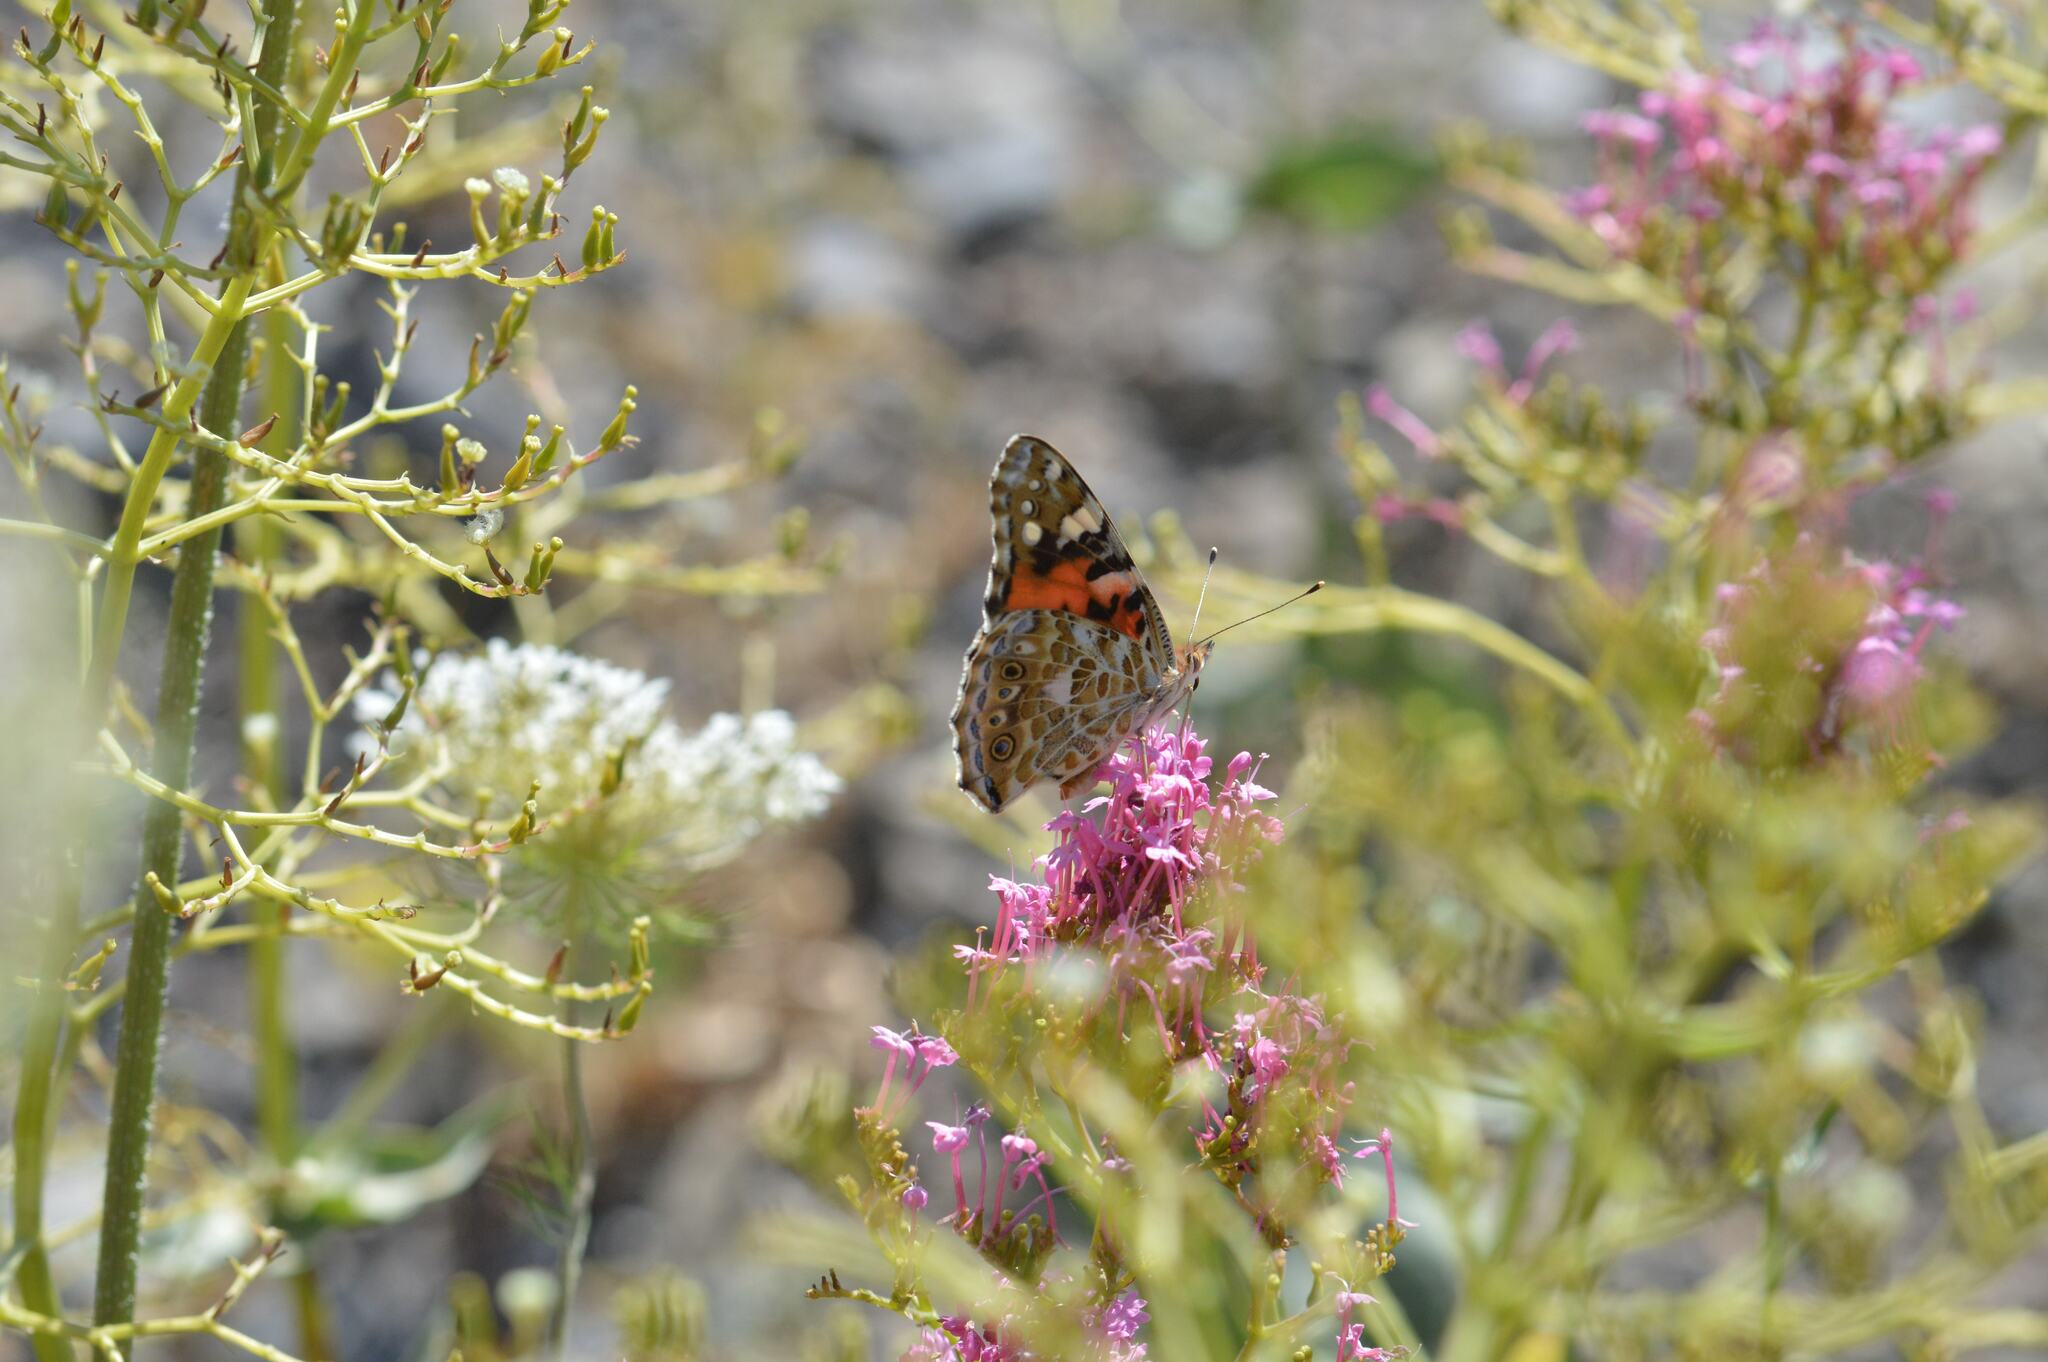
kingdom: Animalia
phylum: Arthropoda
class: Insecta
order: Lepidoptera
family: Nymphalidae
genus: Vanessa
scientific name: Vanessa cardui
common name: Painted lady
